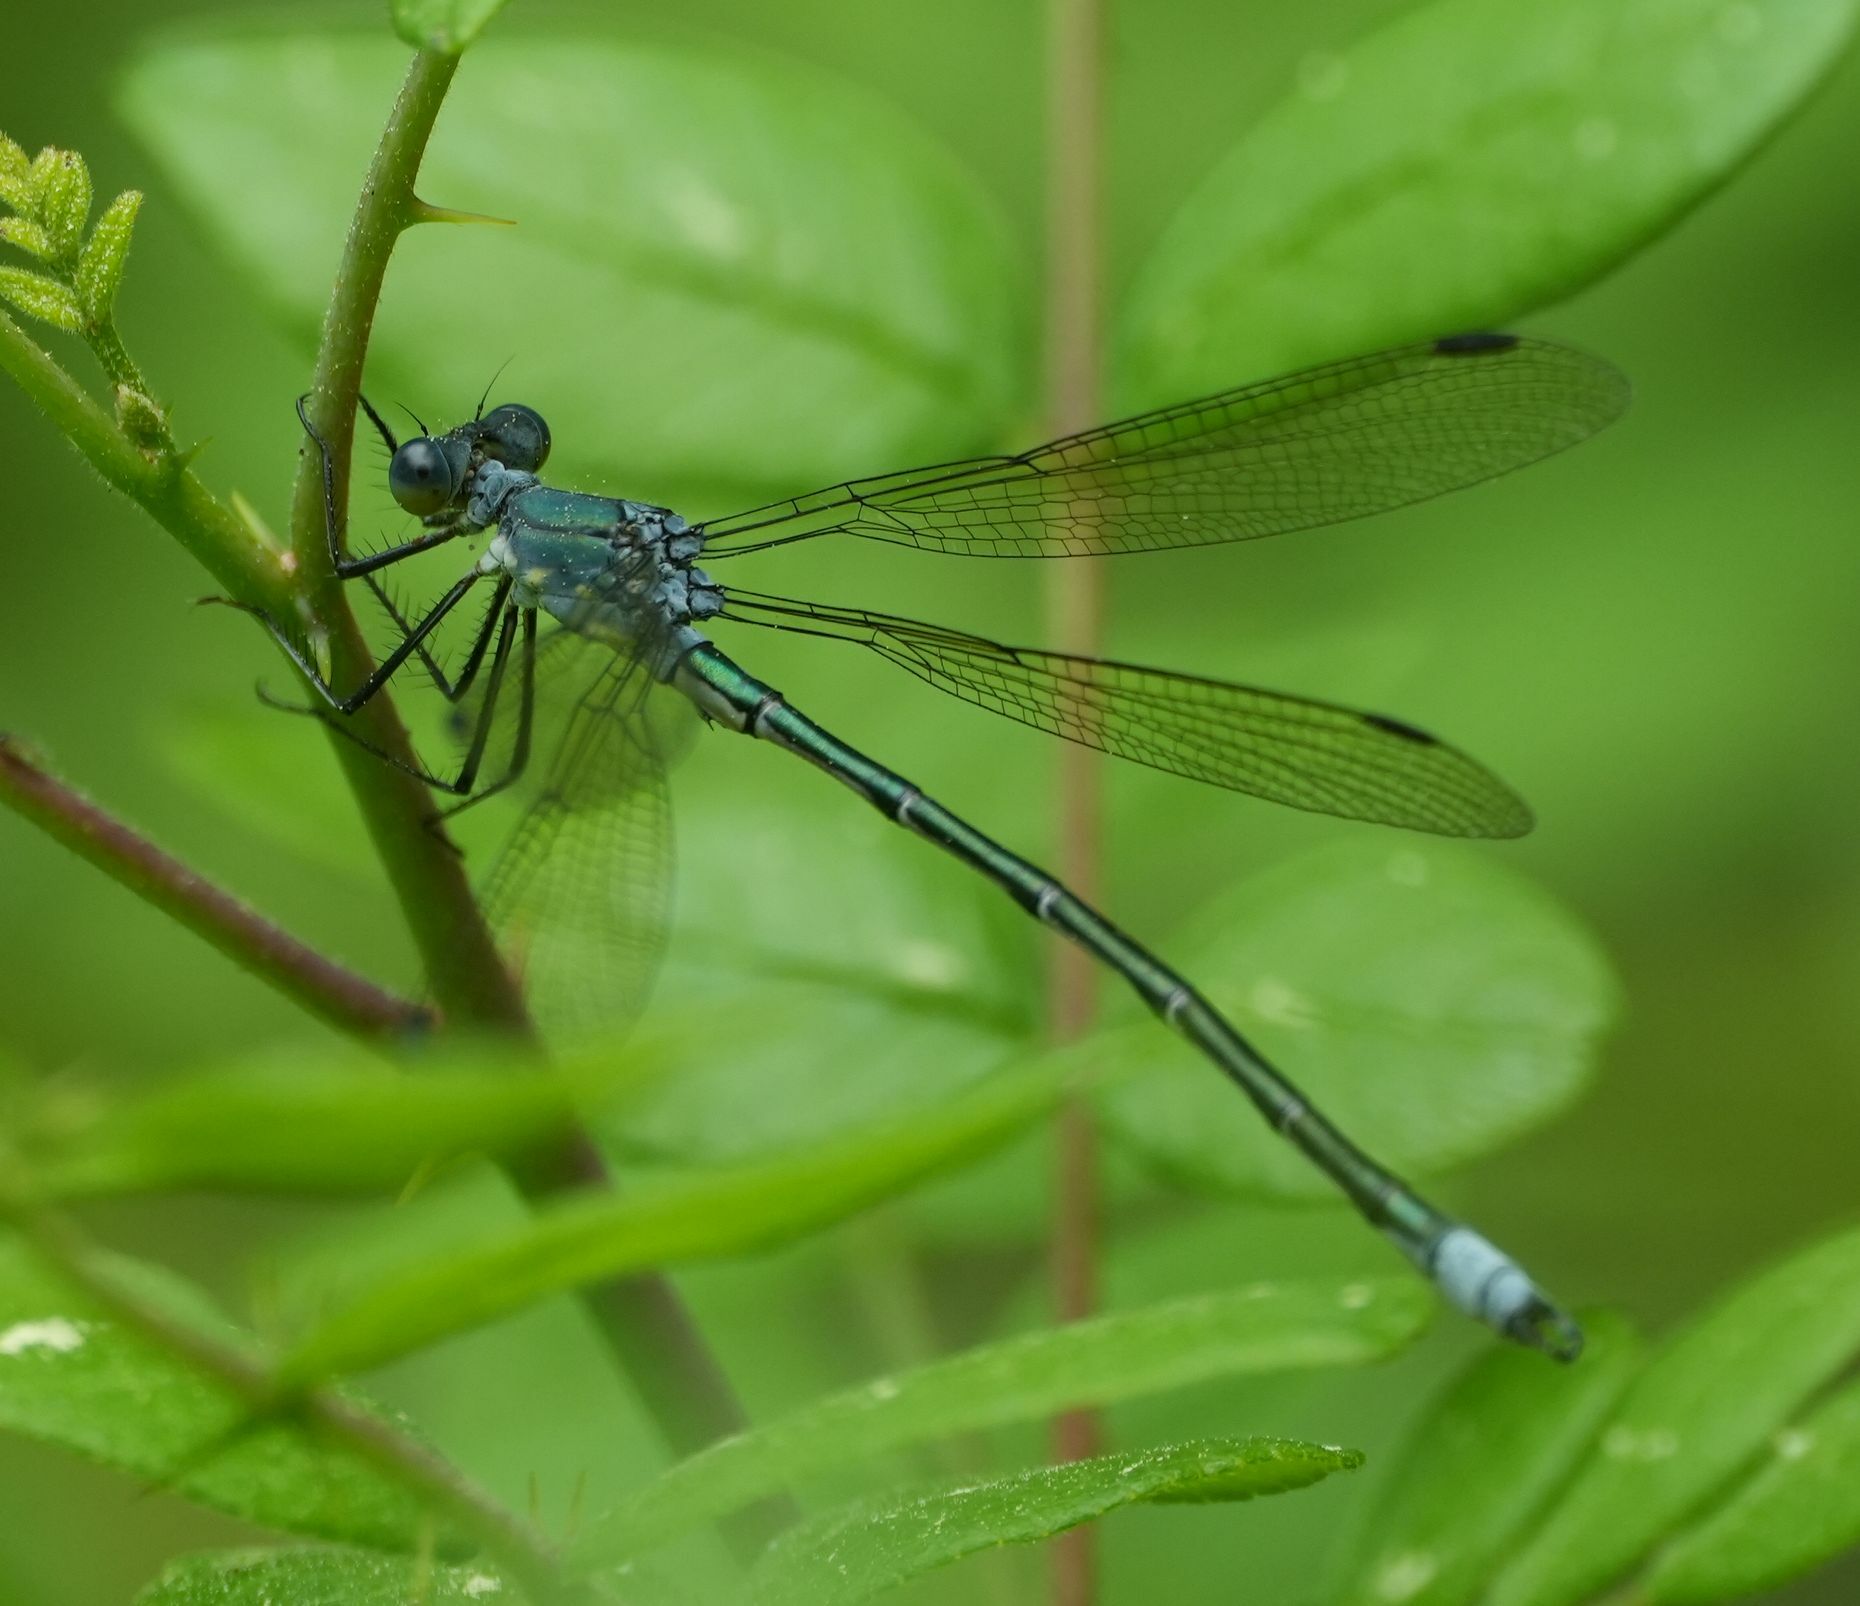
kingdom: Animalia
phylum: Arthropoda
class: Insecta
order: Odonata
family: Lestidae
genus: Lestes
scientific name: Lestes eurinus
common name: Amber-winged spreadwing
